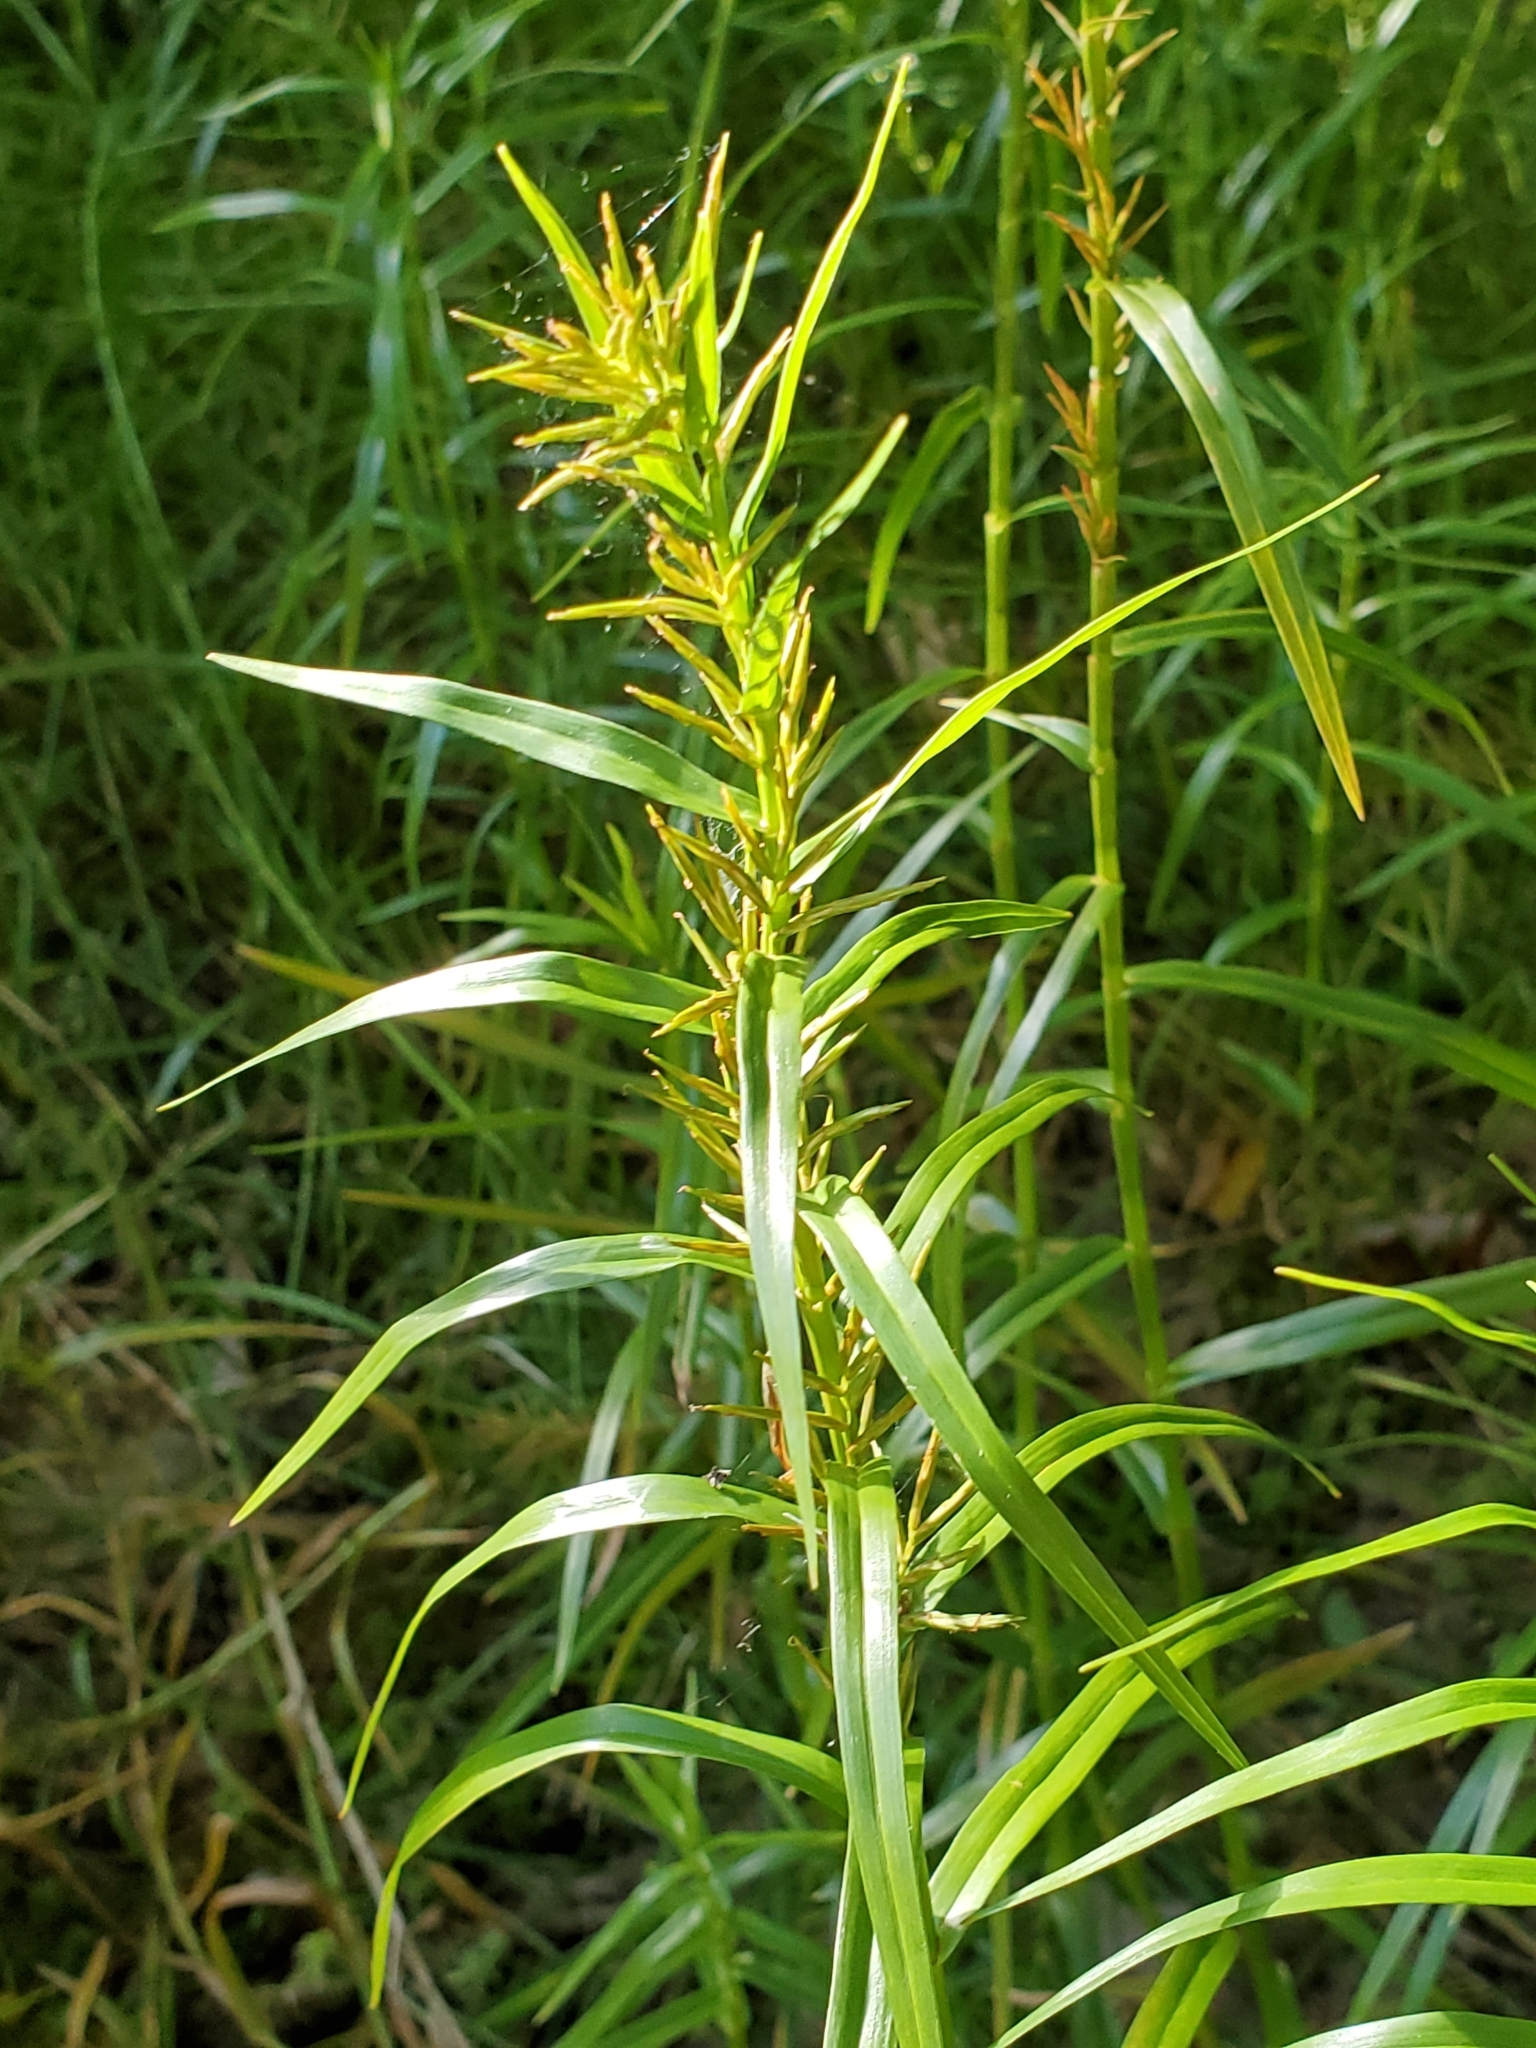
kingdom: Plantae
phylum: Tracheophyta
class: Liliopsida
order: Poales
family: Cyperaceae
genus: Dulichium
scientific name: Dulichium arundinaceum
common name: Three-way sedge
